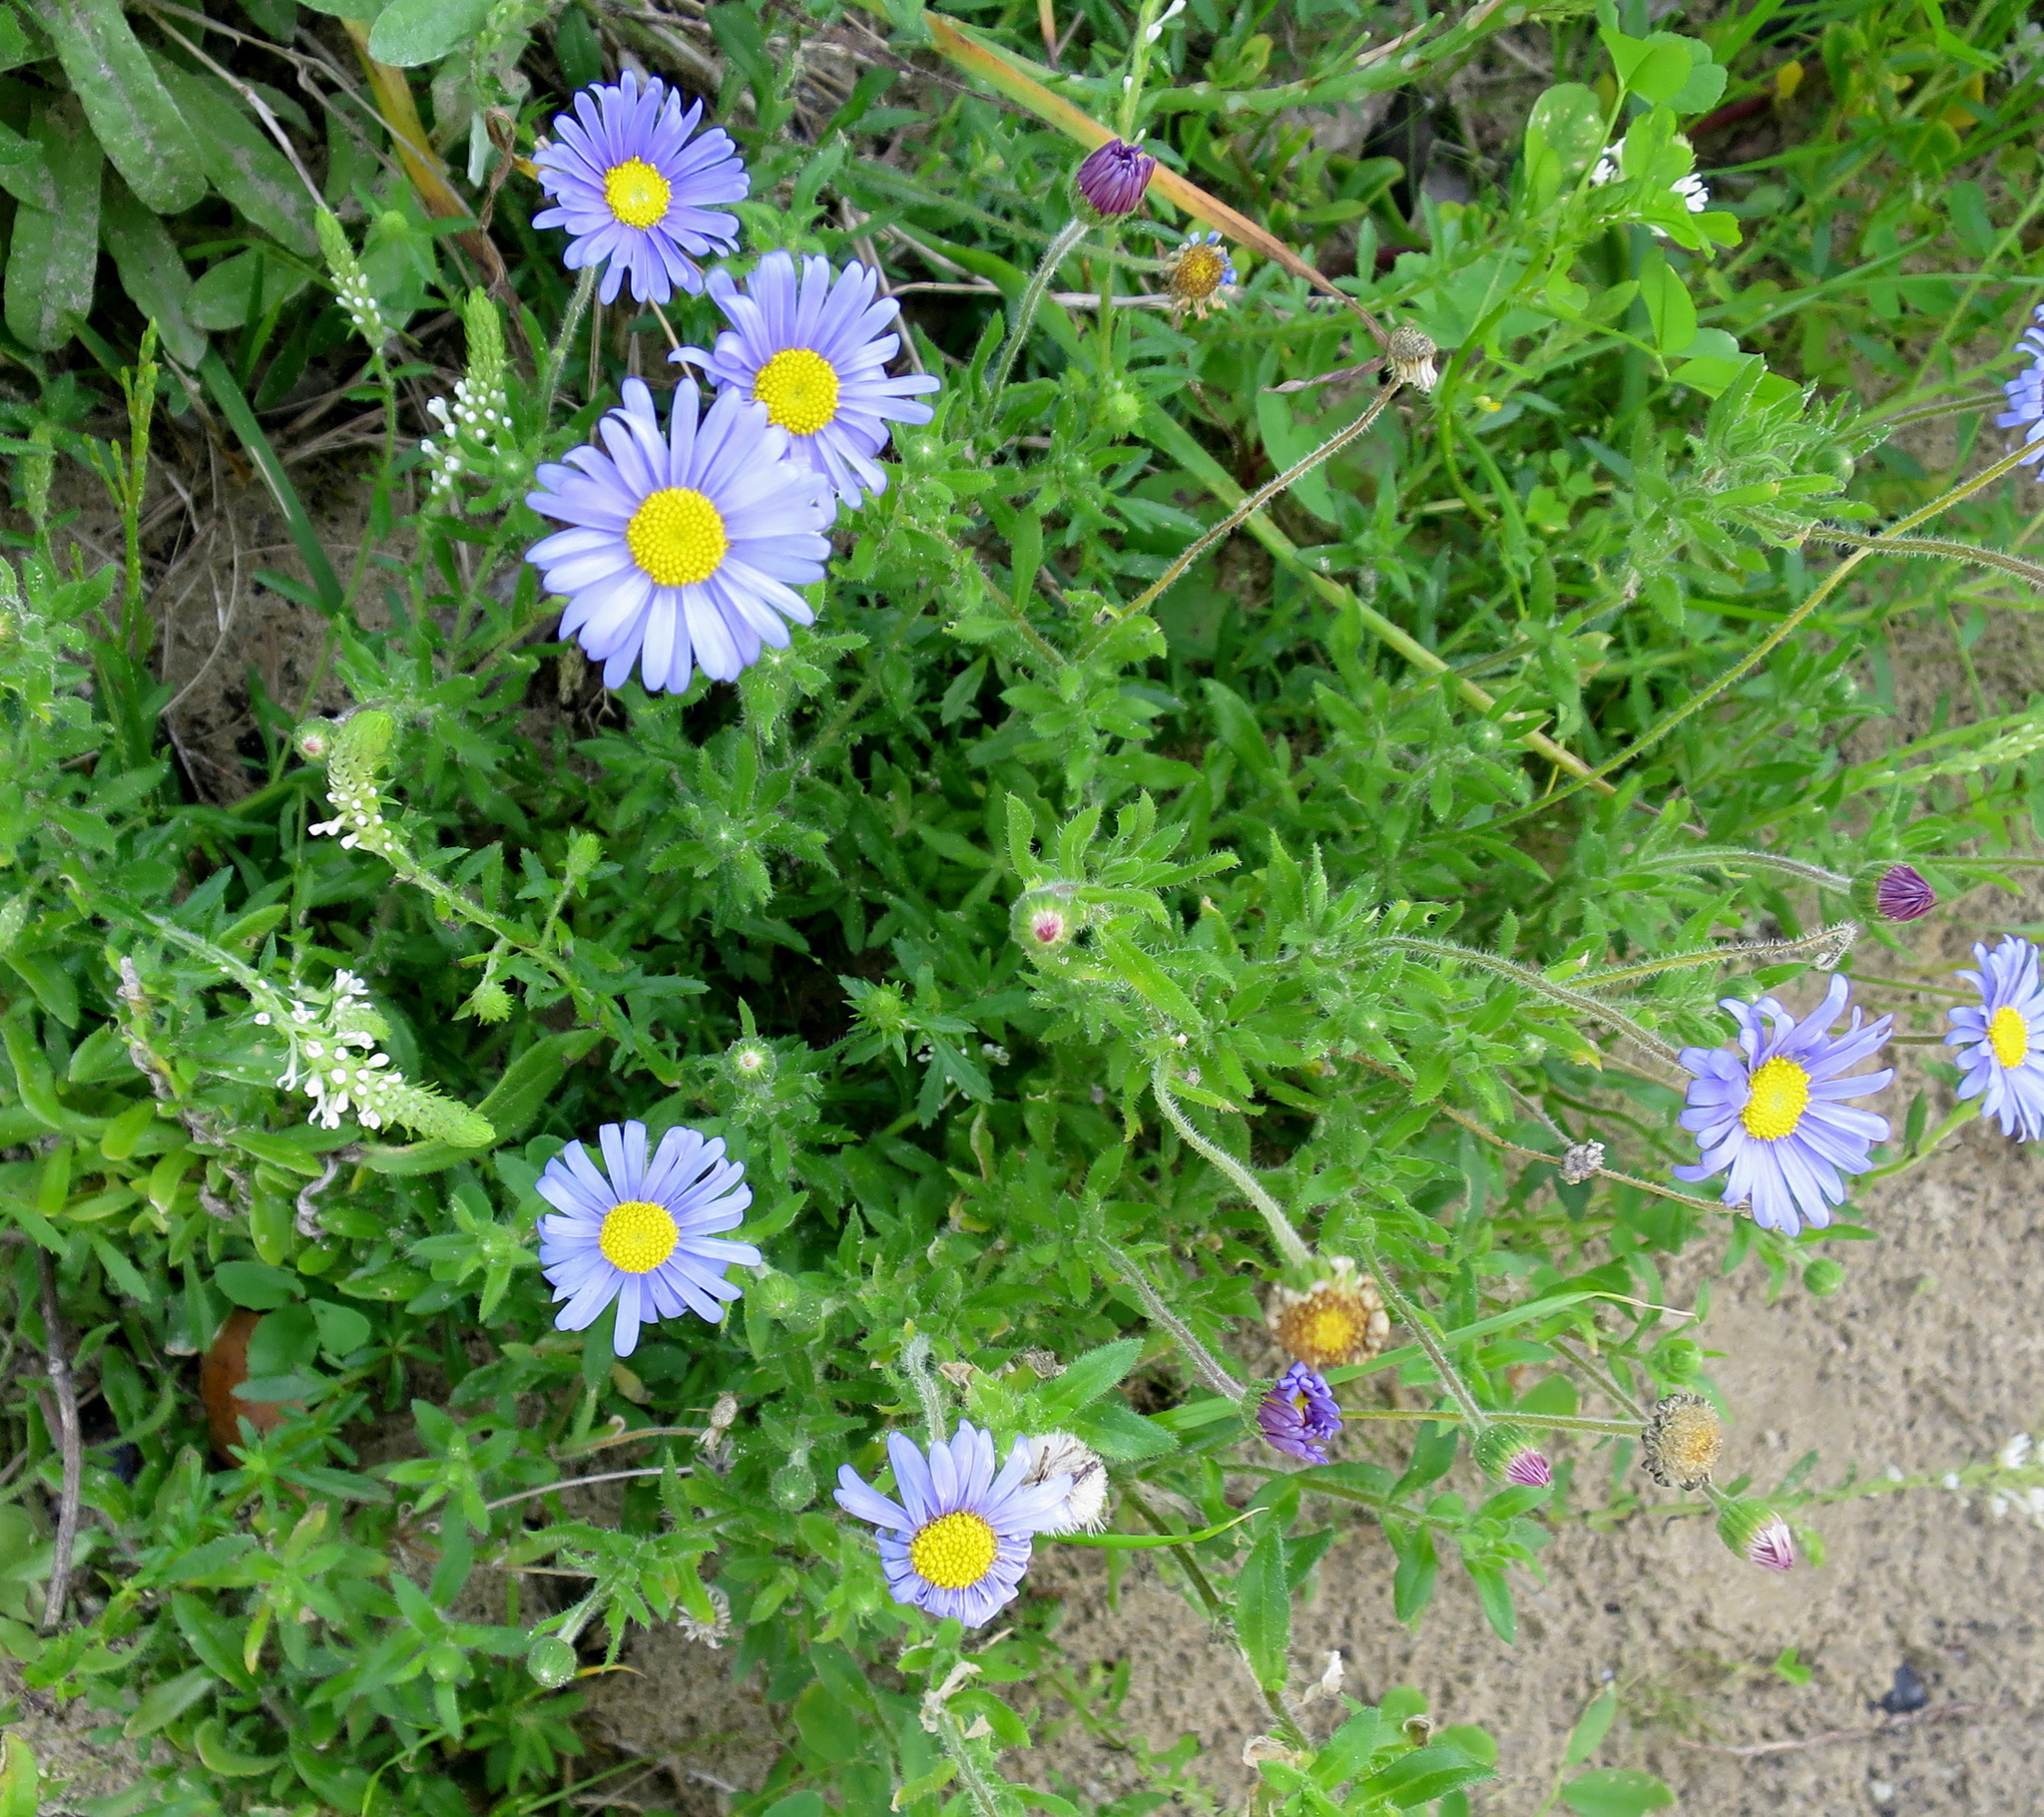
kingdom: Plantae
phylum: Tracheophyta
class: Magnoliopsida
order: Asterales
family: Asteraceae
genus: Felicia
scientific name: Felicia amoena
